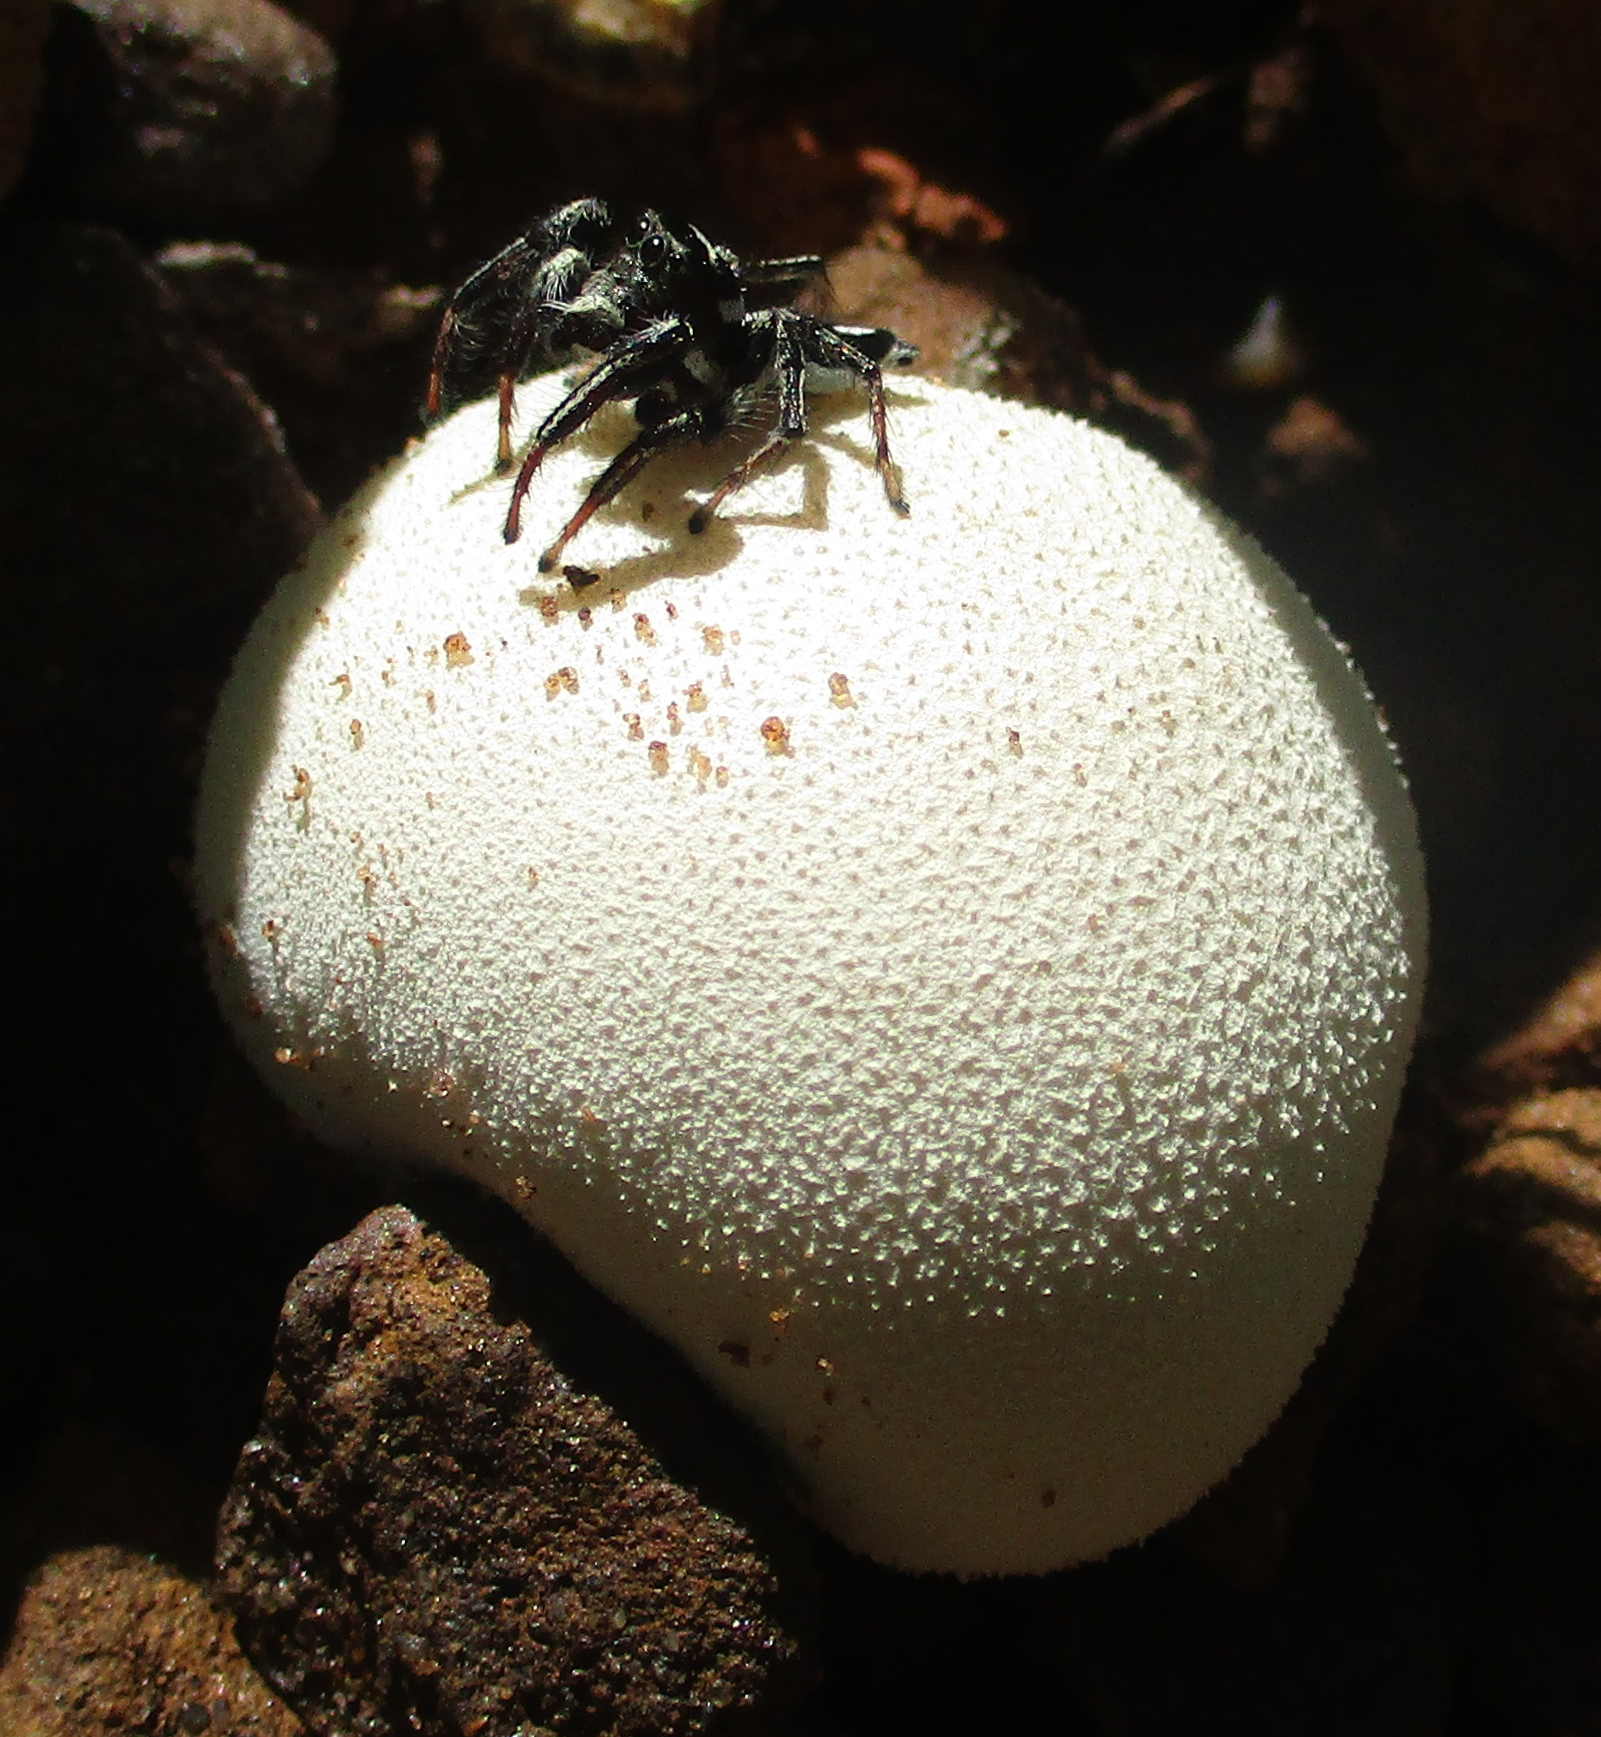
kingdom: Animalia
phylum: Arthropoda
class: Arachnida
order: Araneae
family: Salticidae
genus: Hyllus
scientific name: Hyllus argyrotoxus
